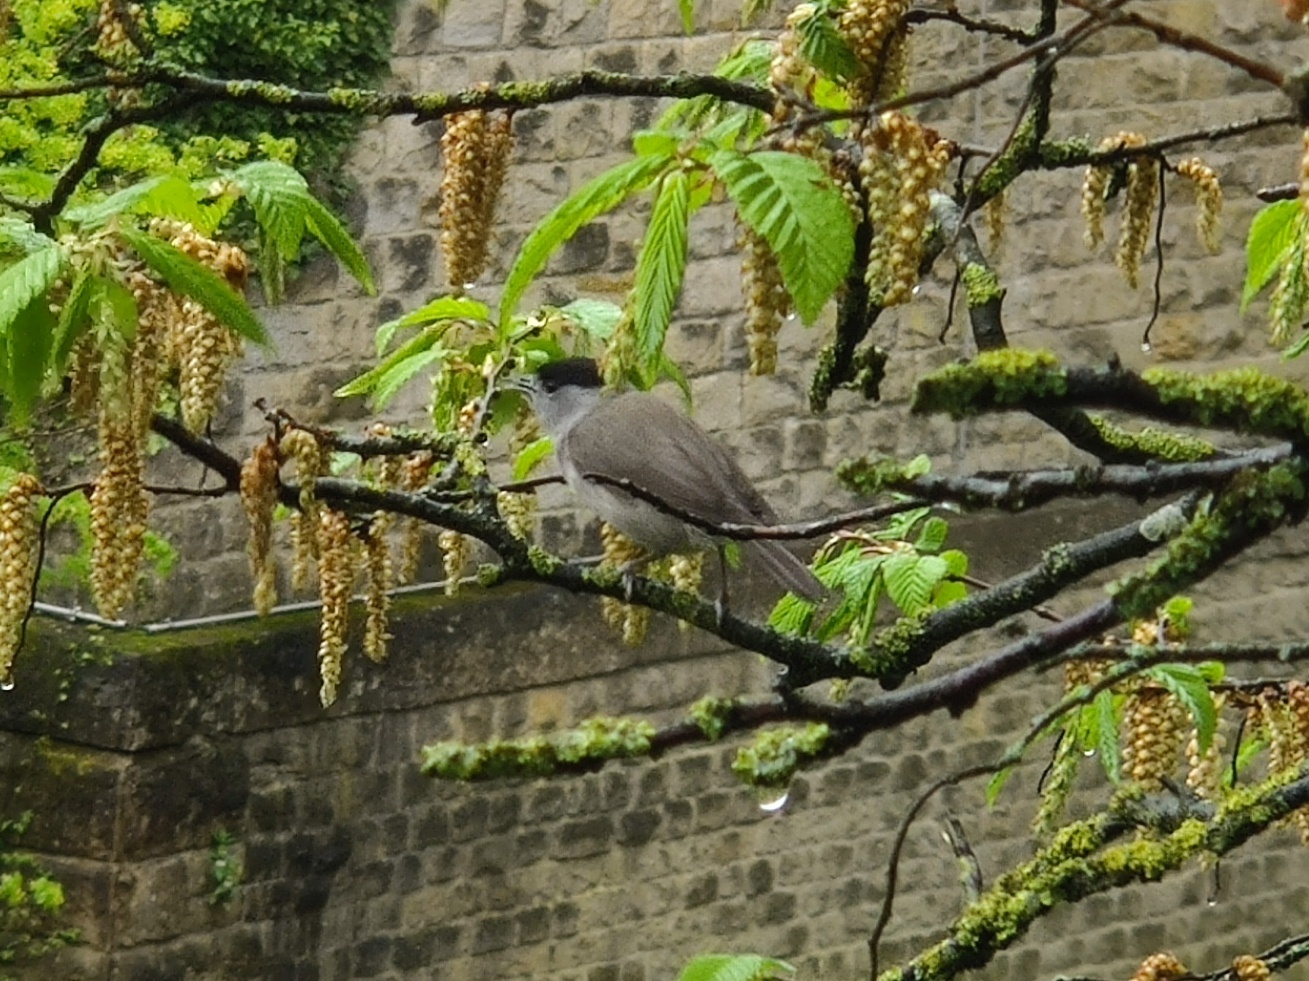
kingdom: Animalia
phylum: Chordata
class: Aves
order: Passeriformes
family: Sylviidae
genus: Sylvia
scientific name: Sylvia atricapilla
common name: Eurasian blackcap
